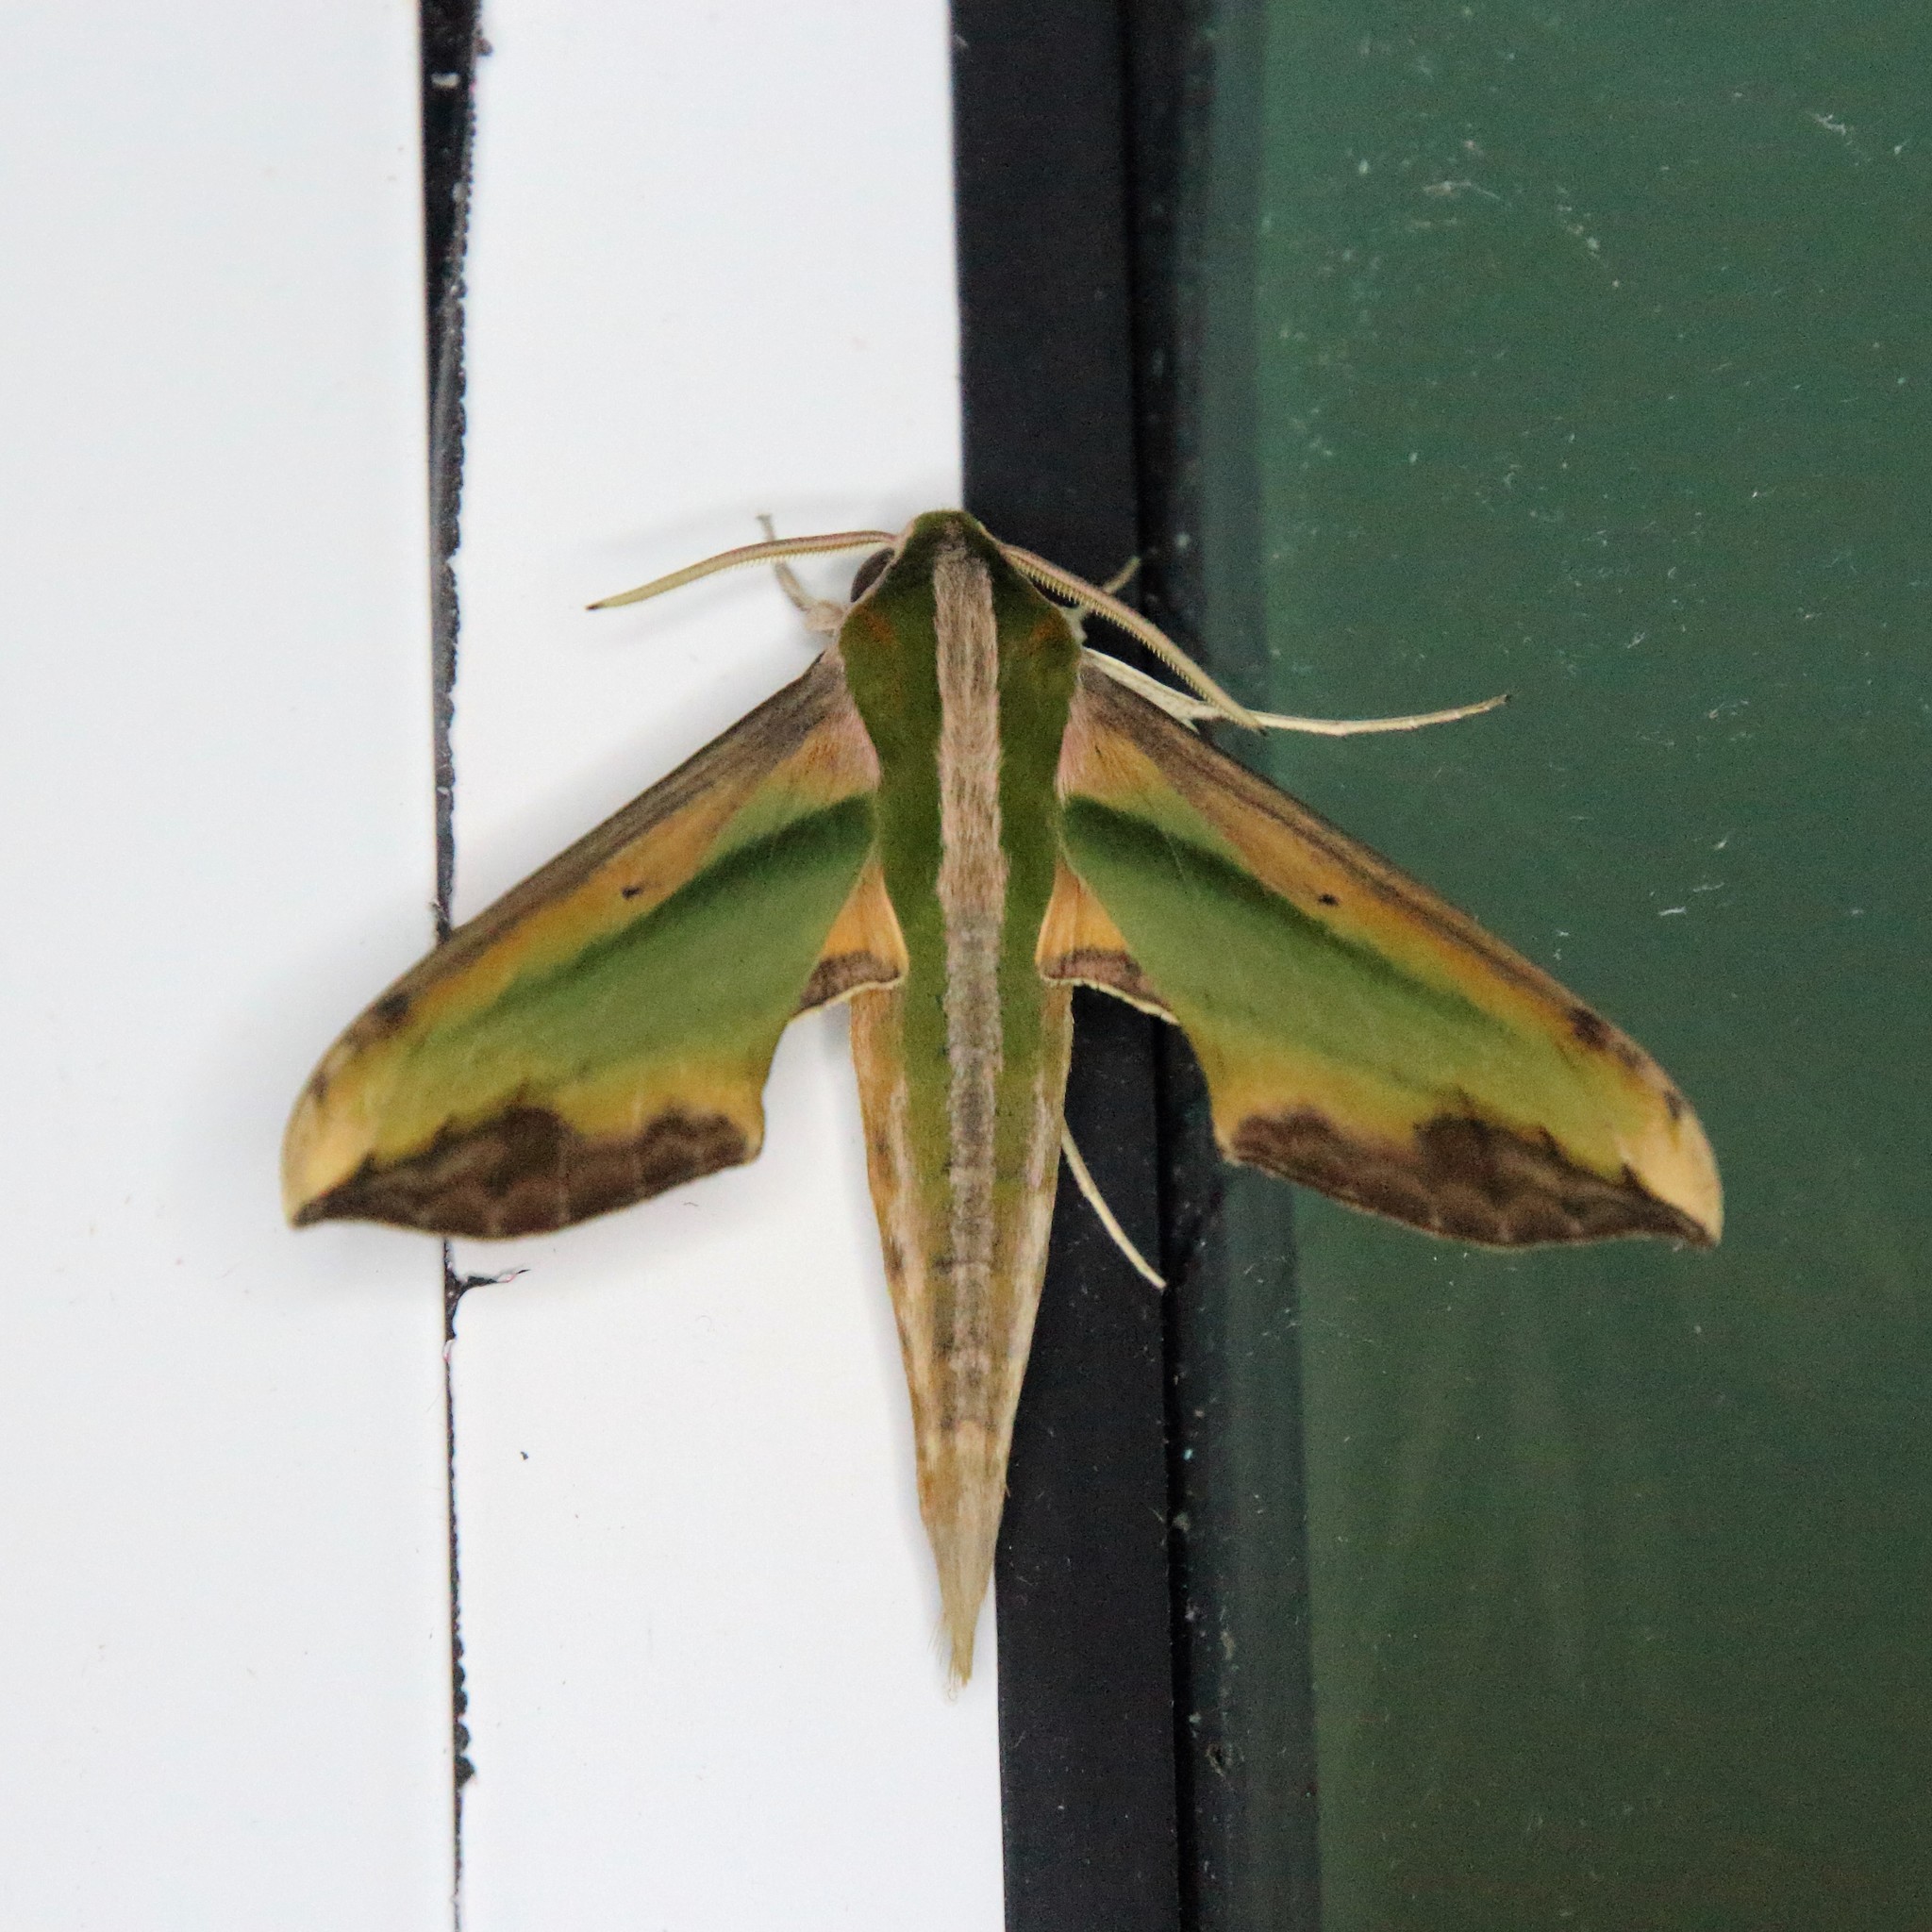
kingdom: Animalia
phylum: Arthropoda
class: Insecta
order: Lepidoptera
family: Sphingidae
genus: Pergesa
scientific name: Pergesa acteus
